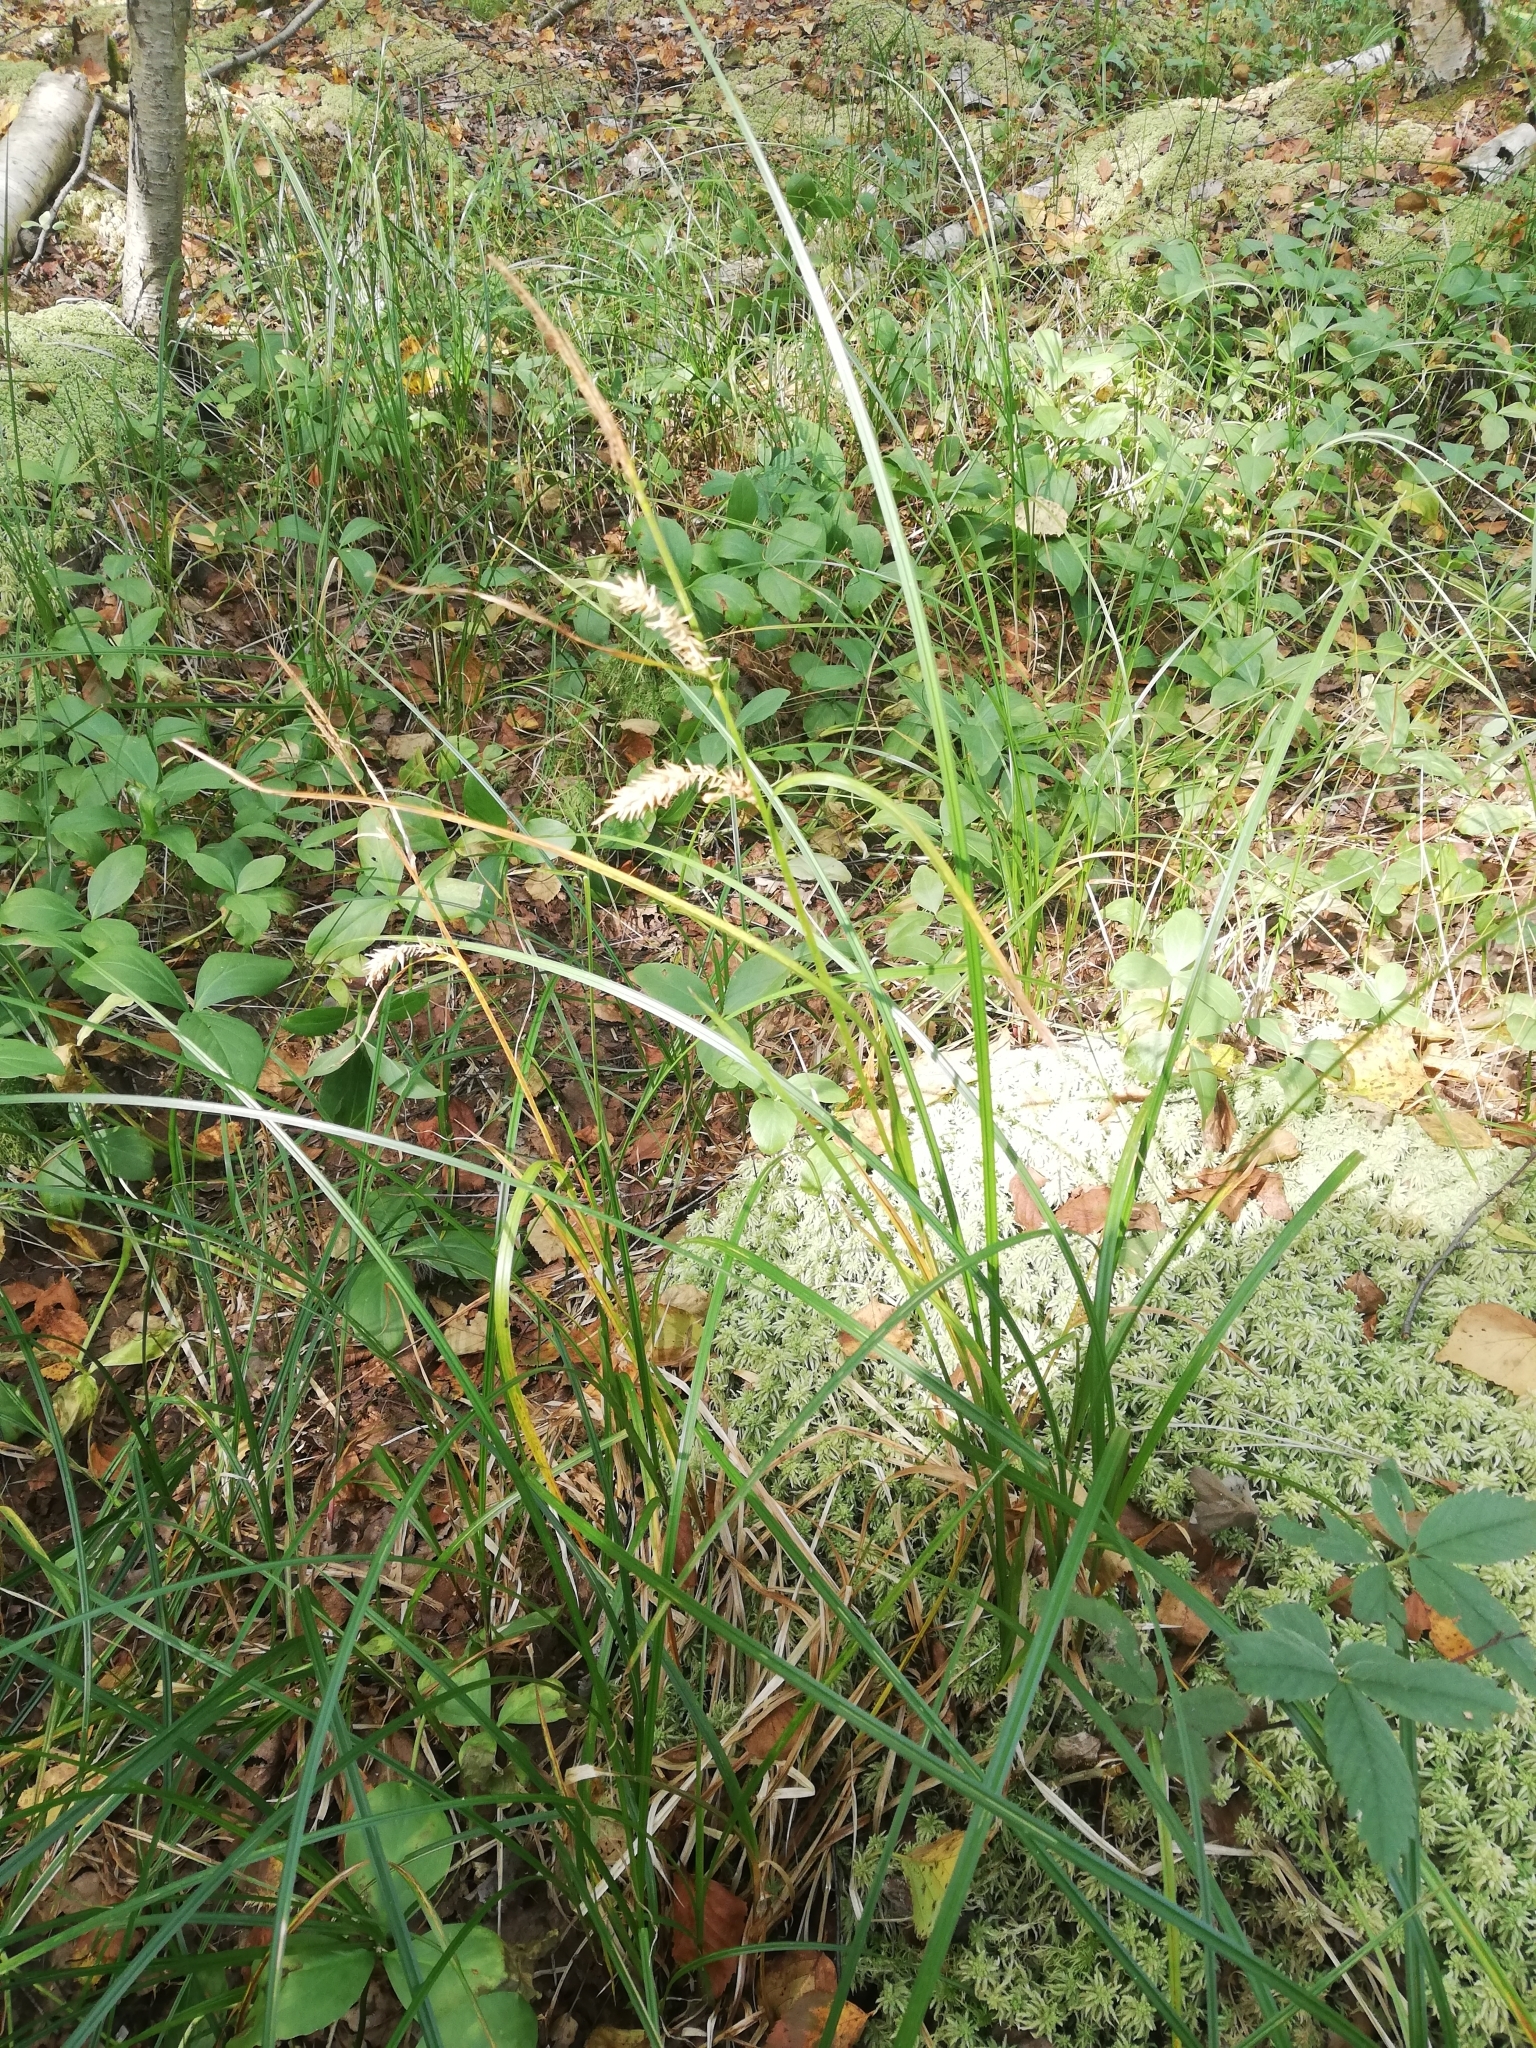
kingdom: Plantae
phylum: Tracheophyta
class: Liliopsida
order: Poales
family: Cyperaceae
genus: Carex
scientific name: Carex vesicaria
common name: Bladder-sedge
